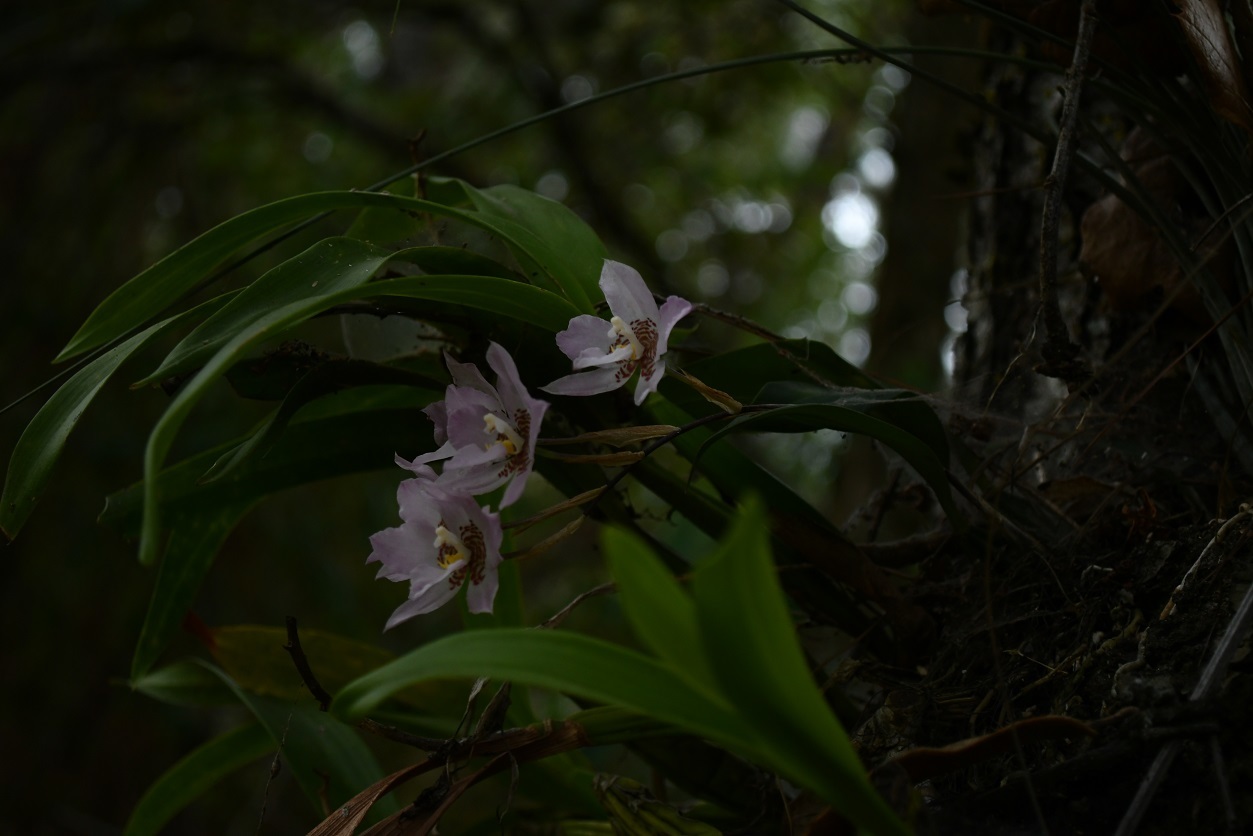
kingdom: Plantae
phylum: Tracheophyta
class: Liliopsida
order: Asparagales
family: Orchidaceae
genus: Rhynchostele
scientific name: Rhynchostele cervantesii
